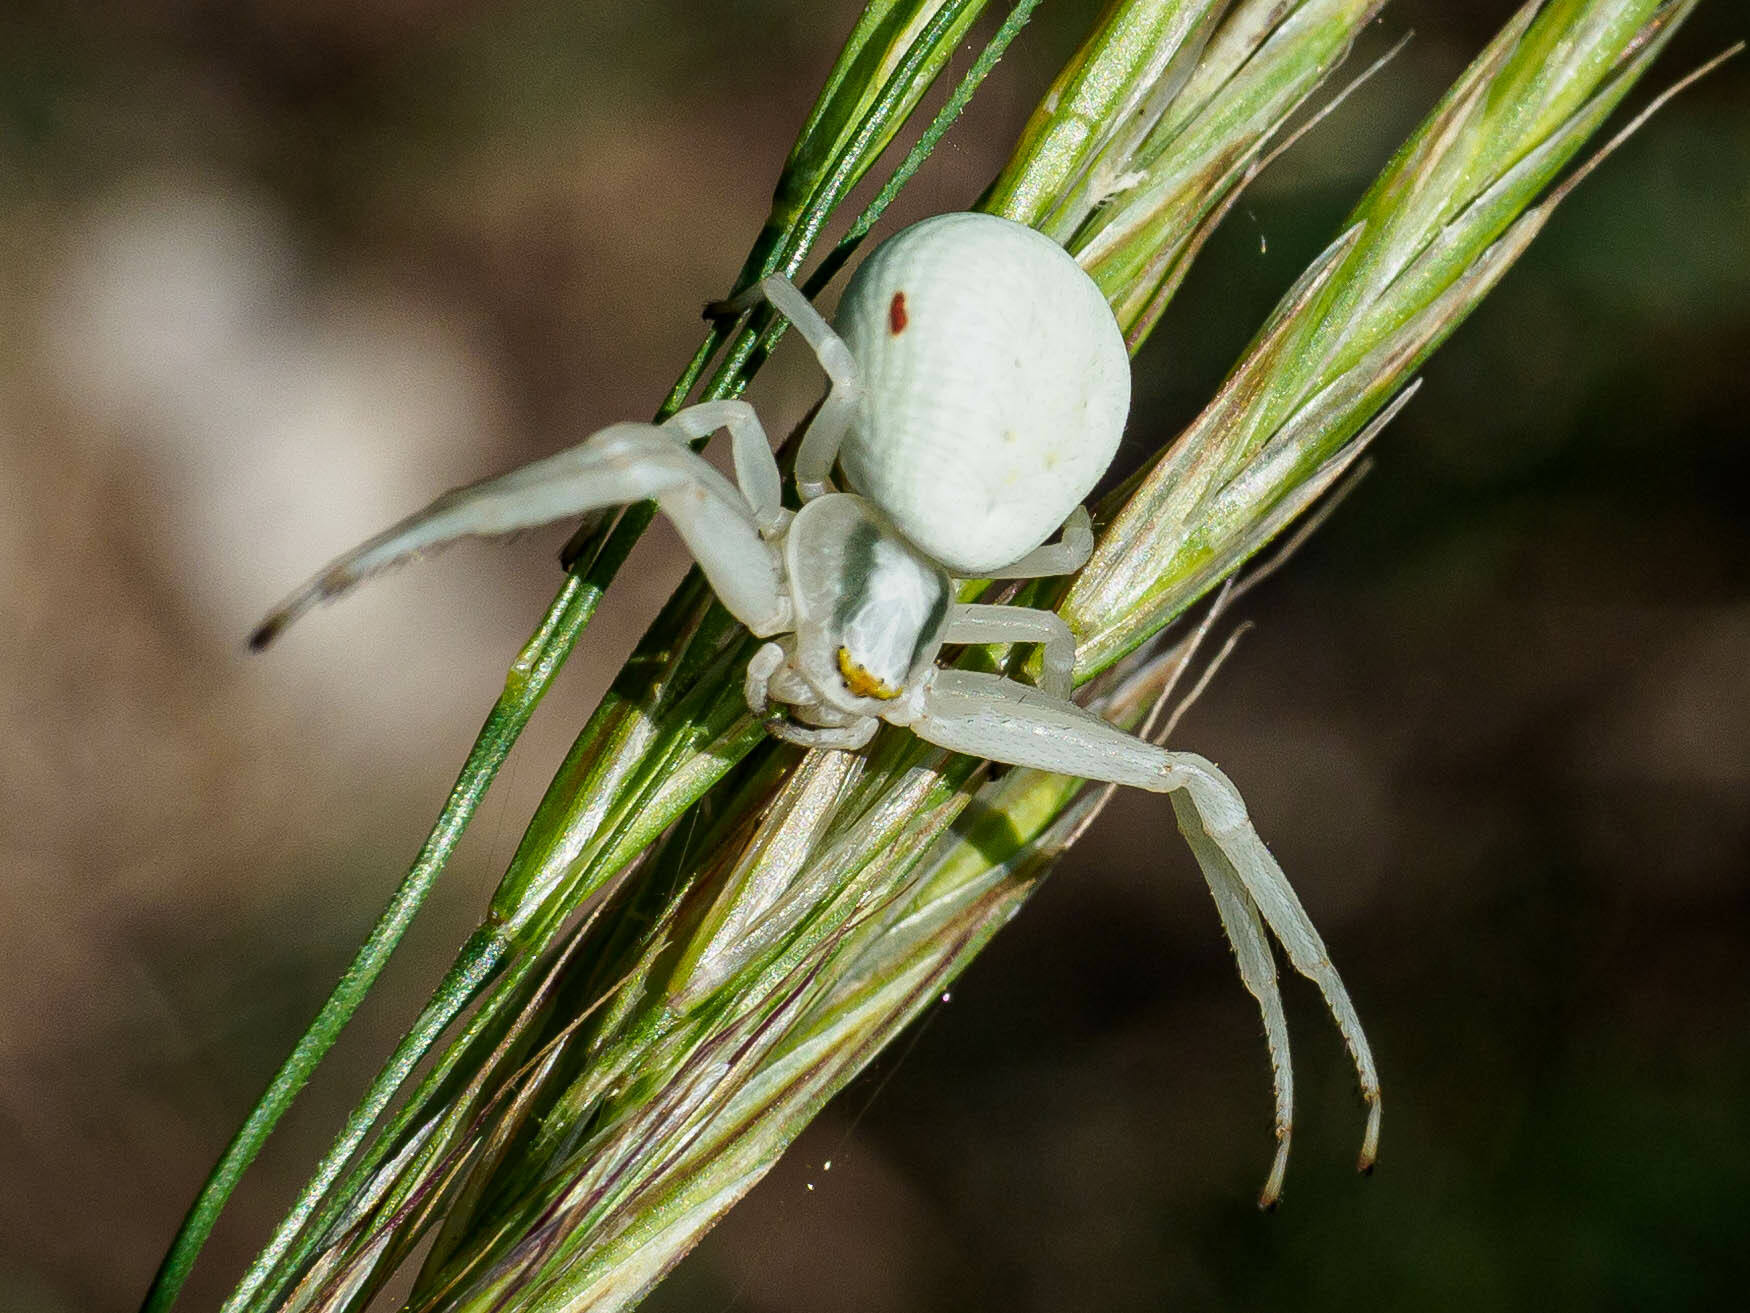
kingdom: Animalia
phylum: Arthropoda
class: Arachnida
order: Araneae
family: Thomisidae
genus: Misumena
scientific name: Misumena vatia
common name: Goldenrod crab spider
